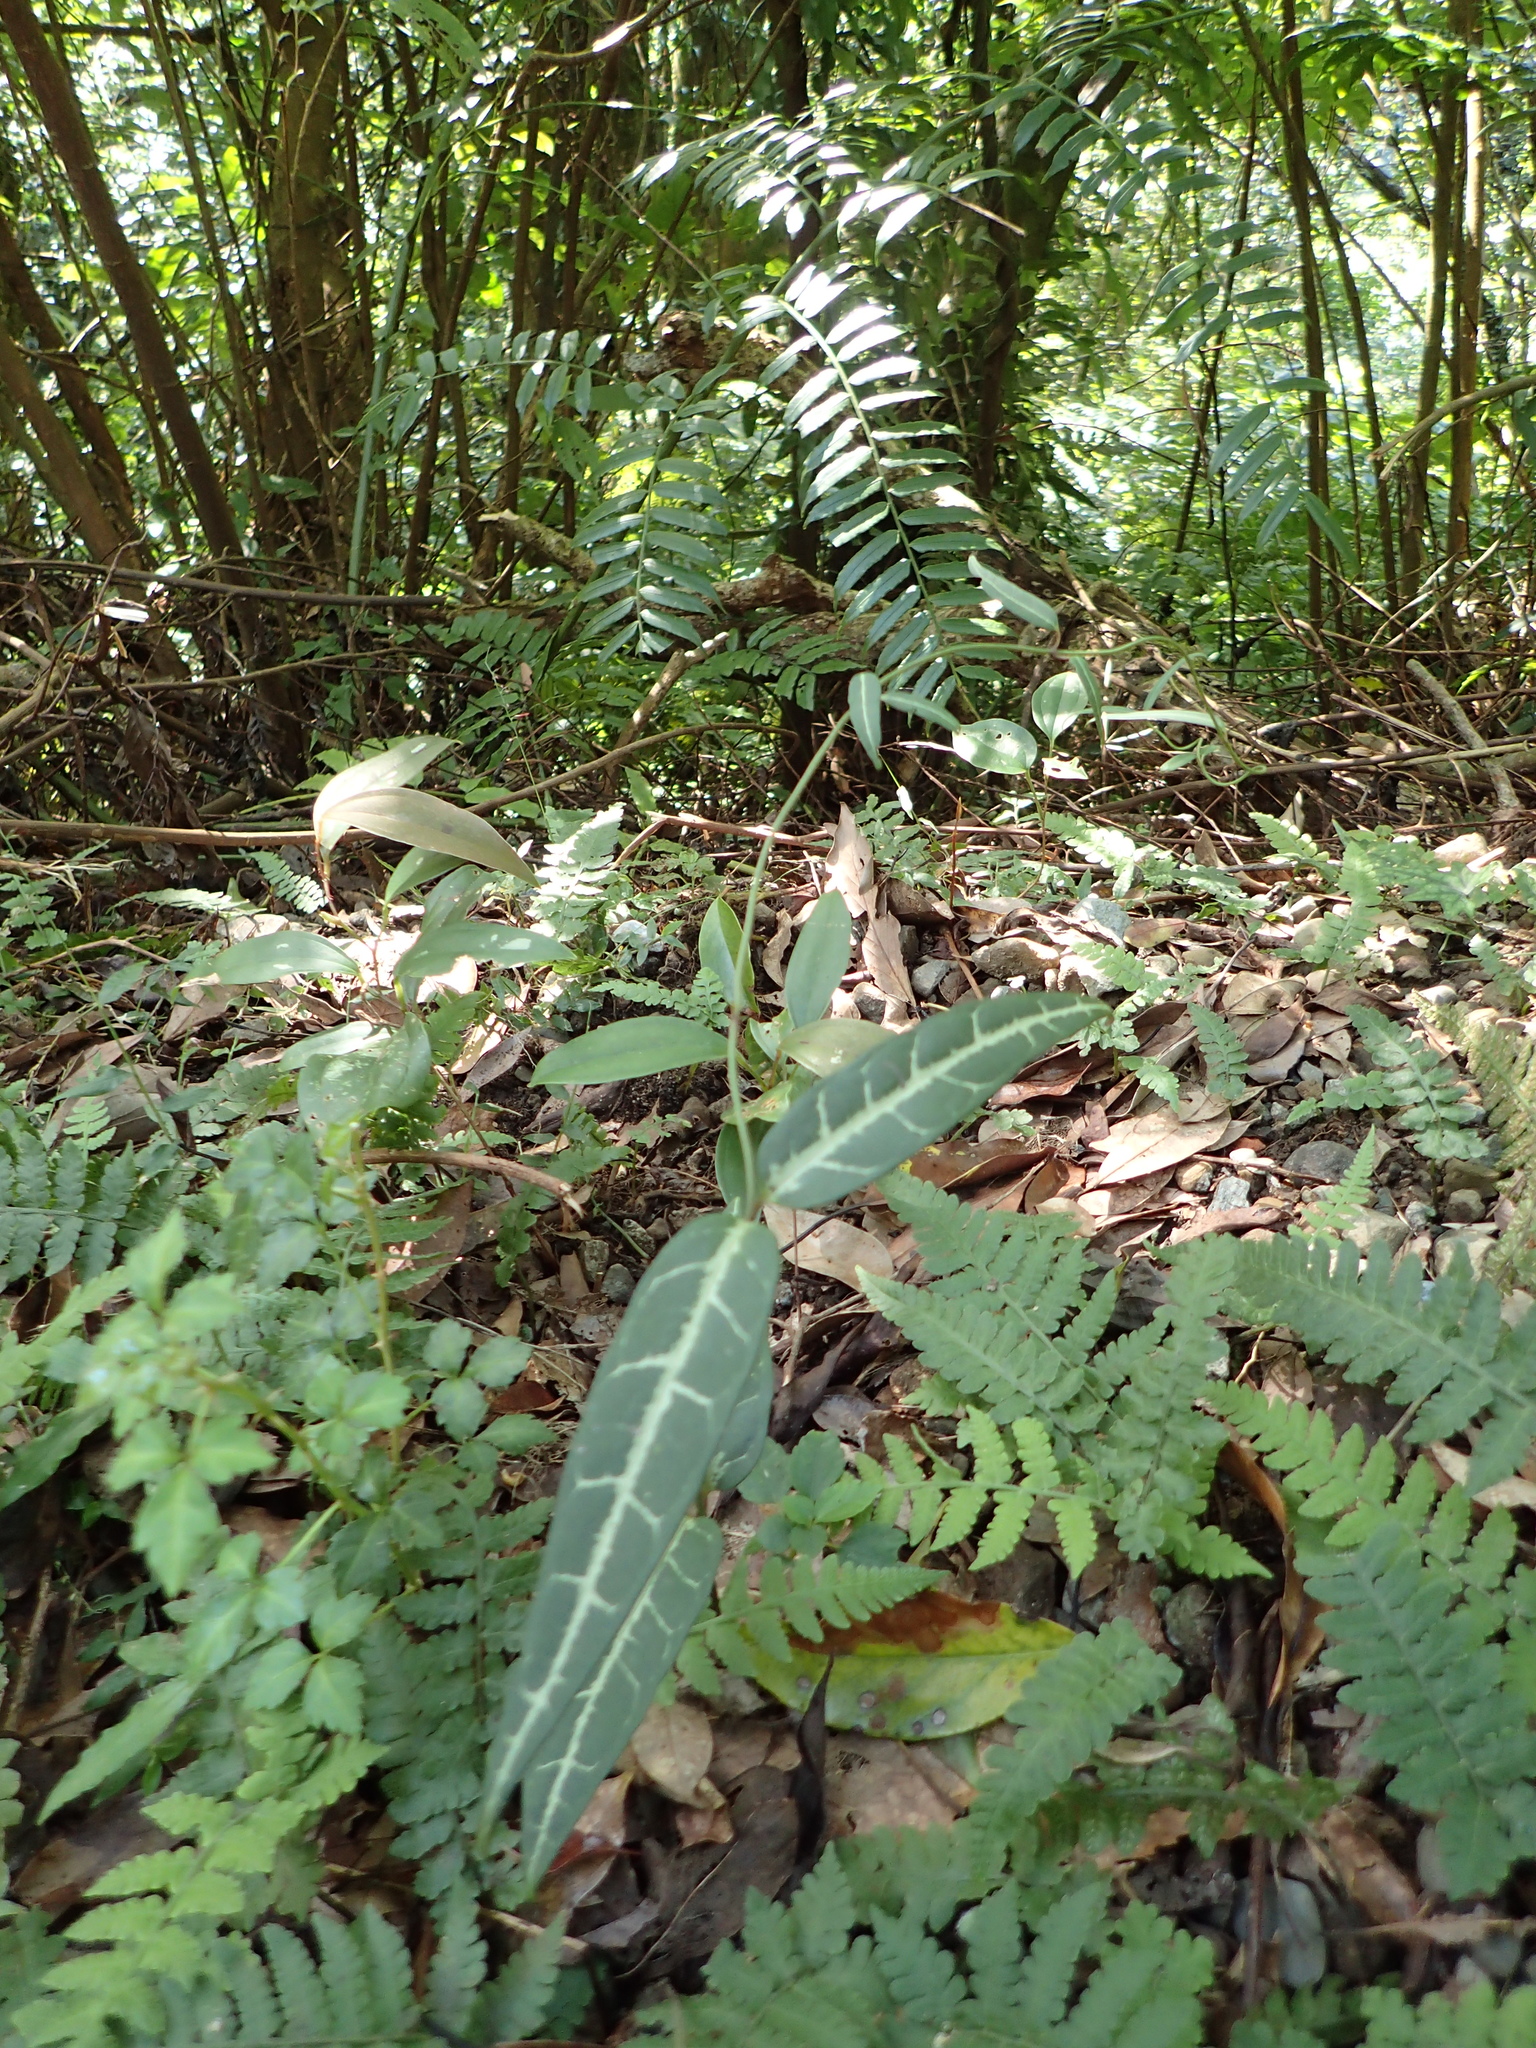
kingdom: Plantae
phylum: Tracheophyta
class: Magnoliopsida
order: Gentianales
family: Loganiaceae
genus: Gardneria
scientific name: Gardneria multiflora
